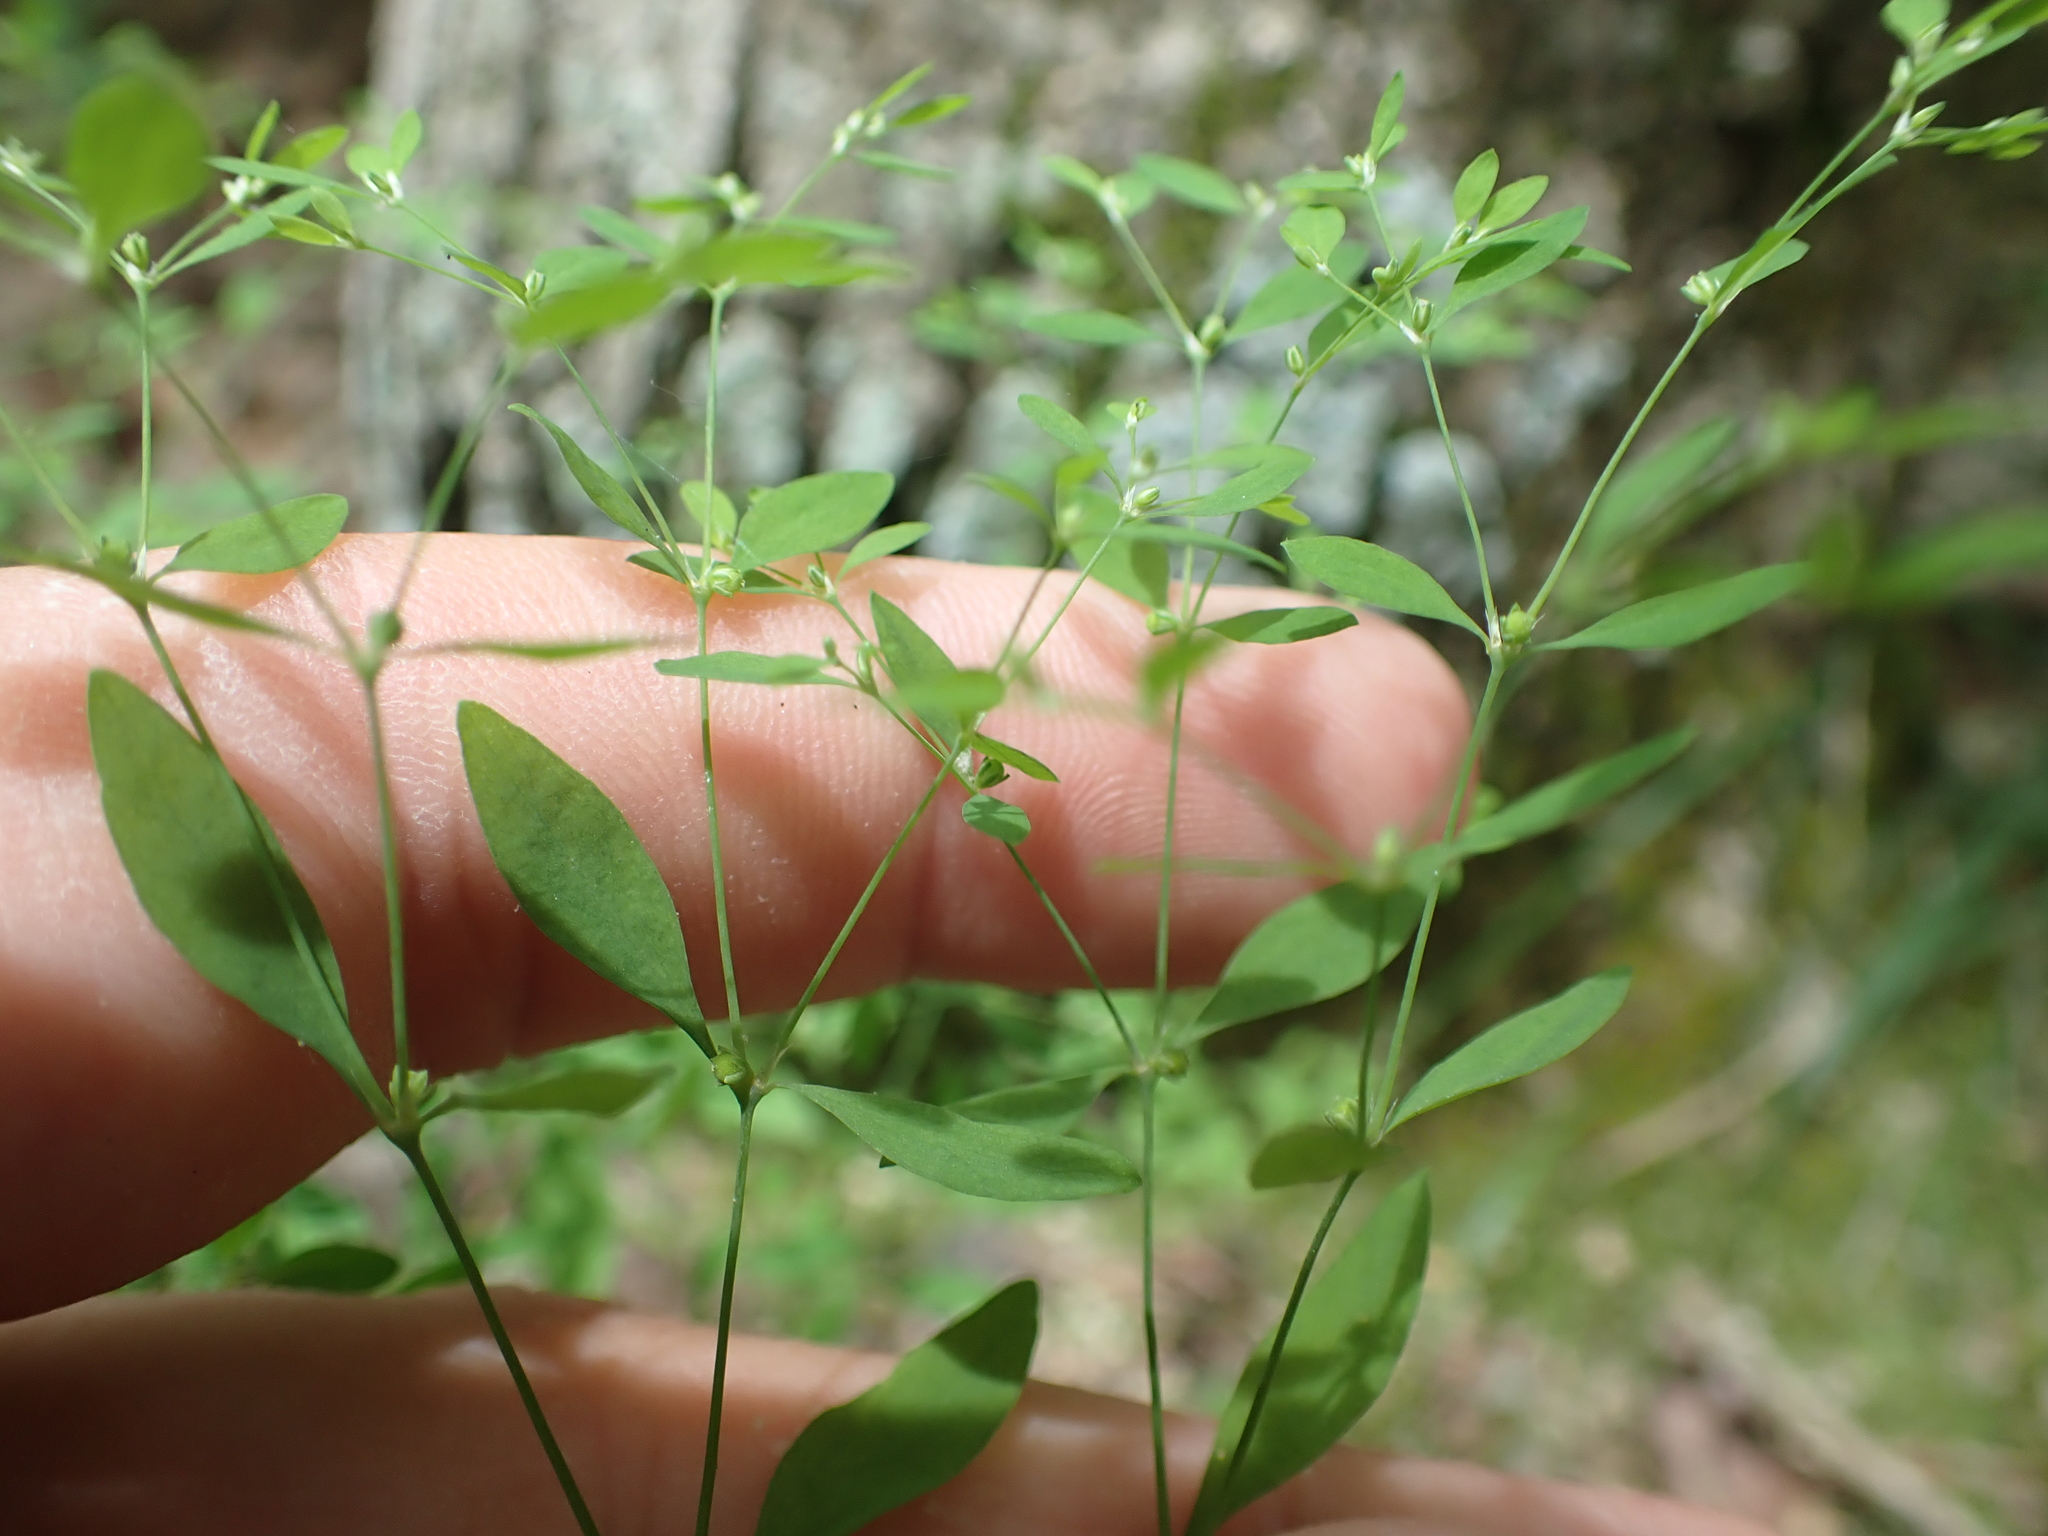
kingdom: Plantae
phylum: Tracheophyta
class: Magnoliopsida
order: Malpighiales
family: Hypericaceae
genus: Hypericum
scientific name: Hypericum mutilum
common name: Dwarf st. john's-wort
